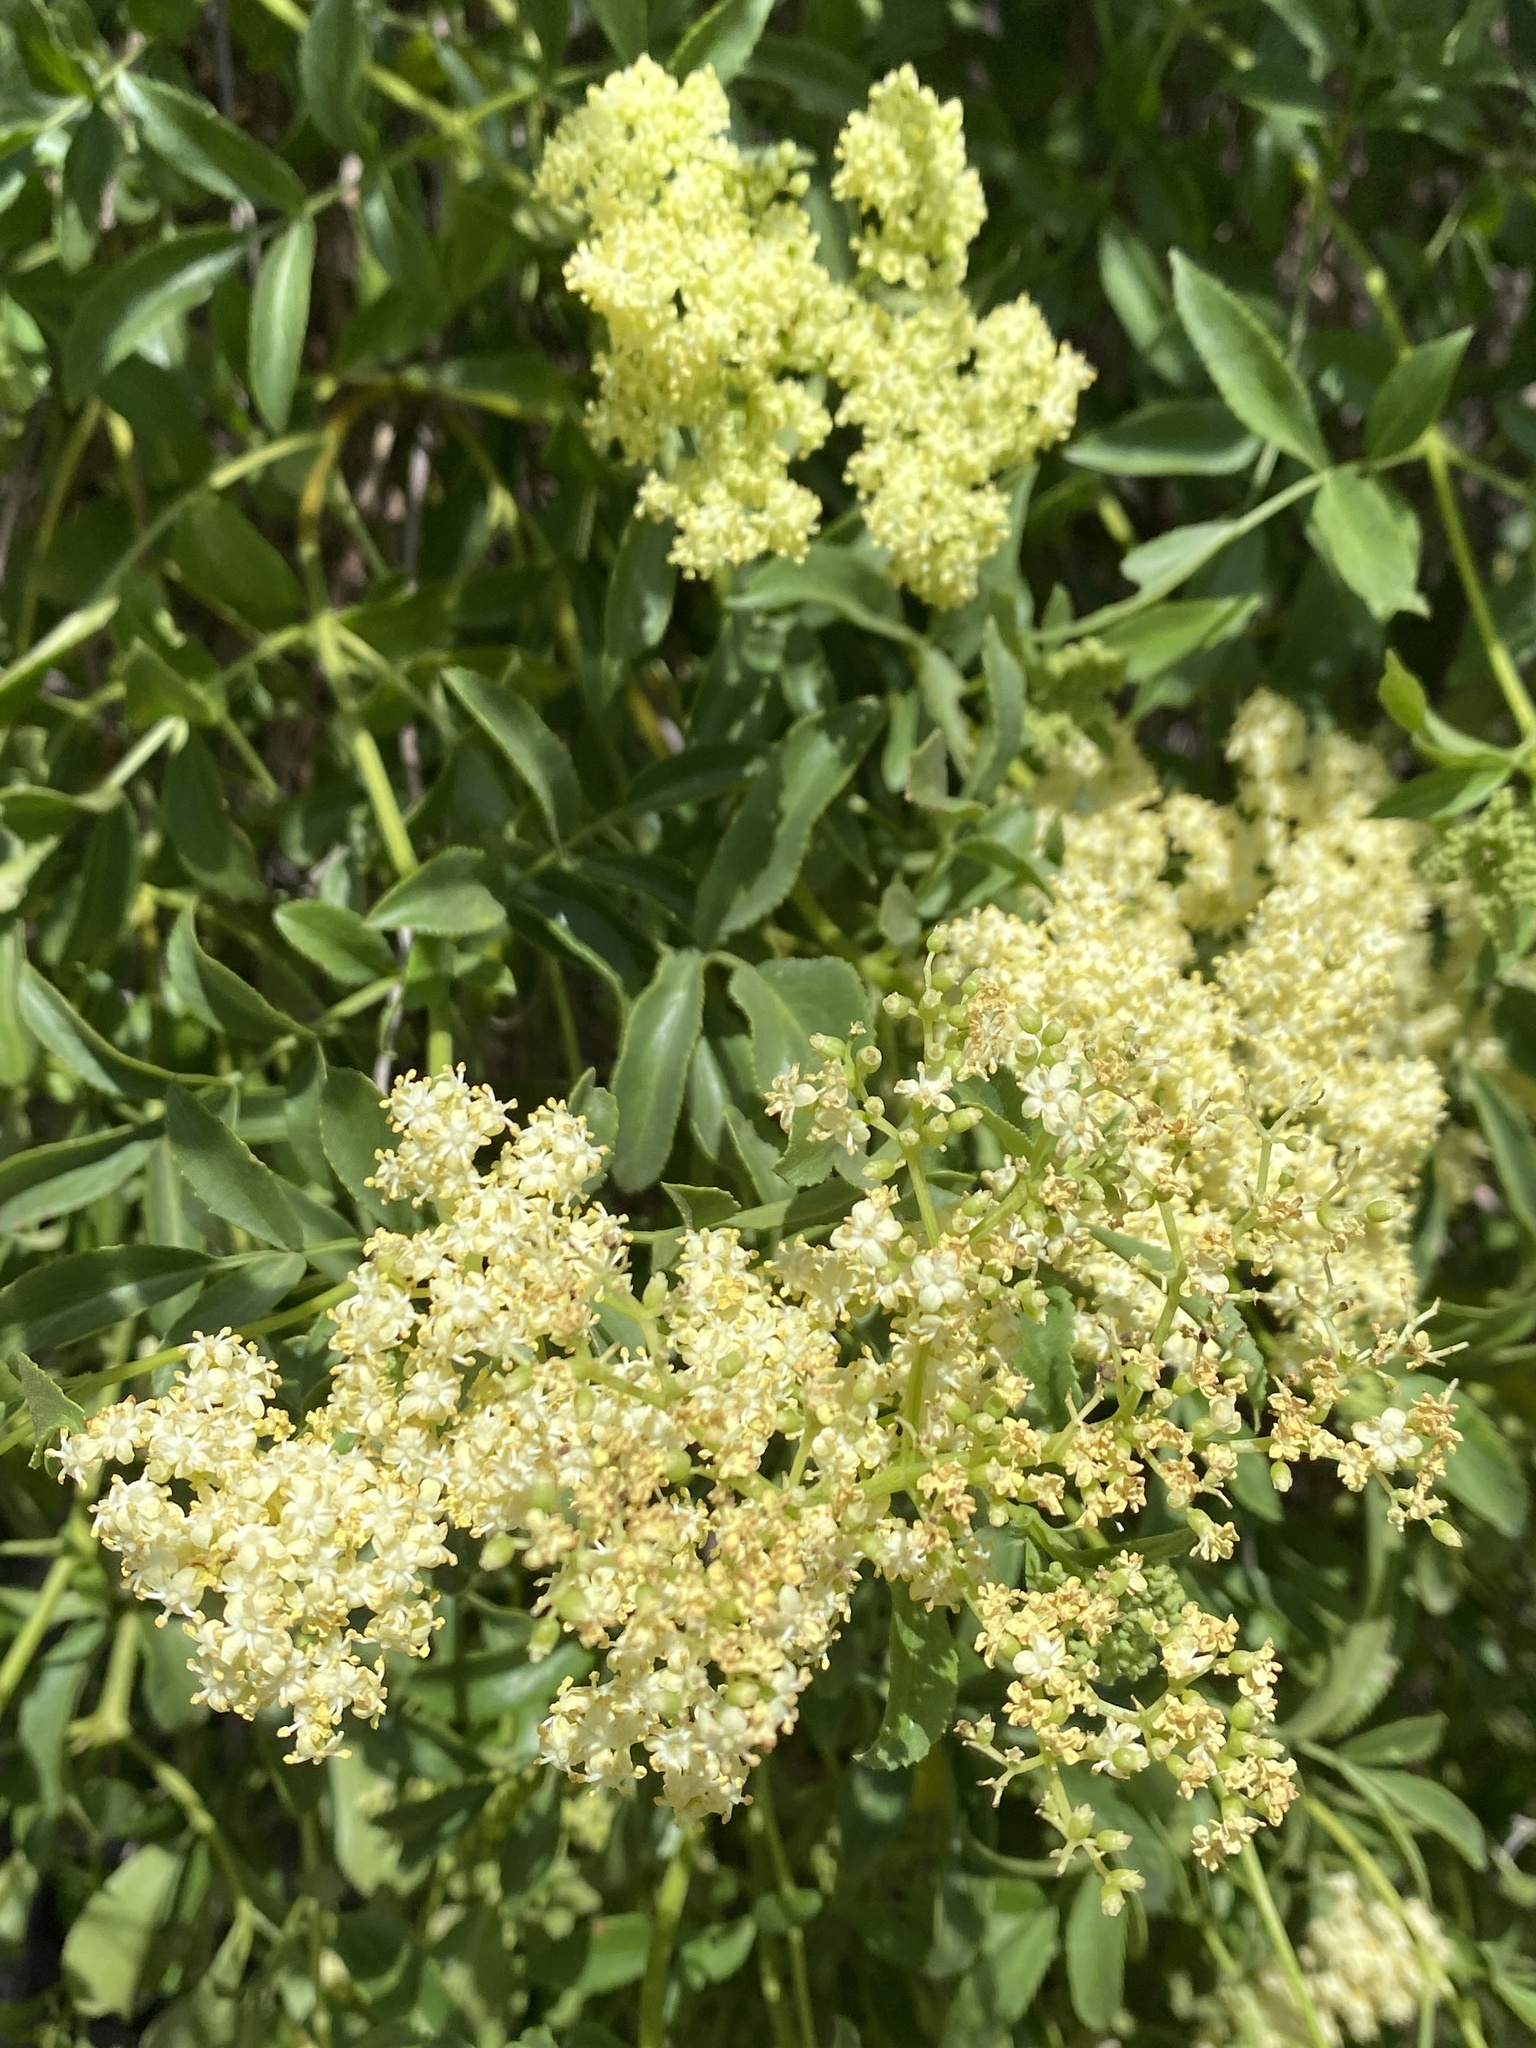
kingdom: Plantae
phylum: Tracheophyta
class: Magnoliopsida
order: Dipsacales
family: Viburnaceae
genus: Sambucus
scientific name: Sambucus cerulea
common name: Blue elder
